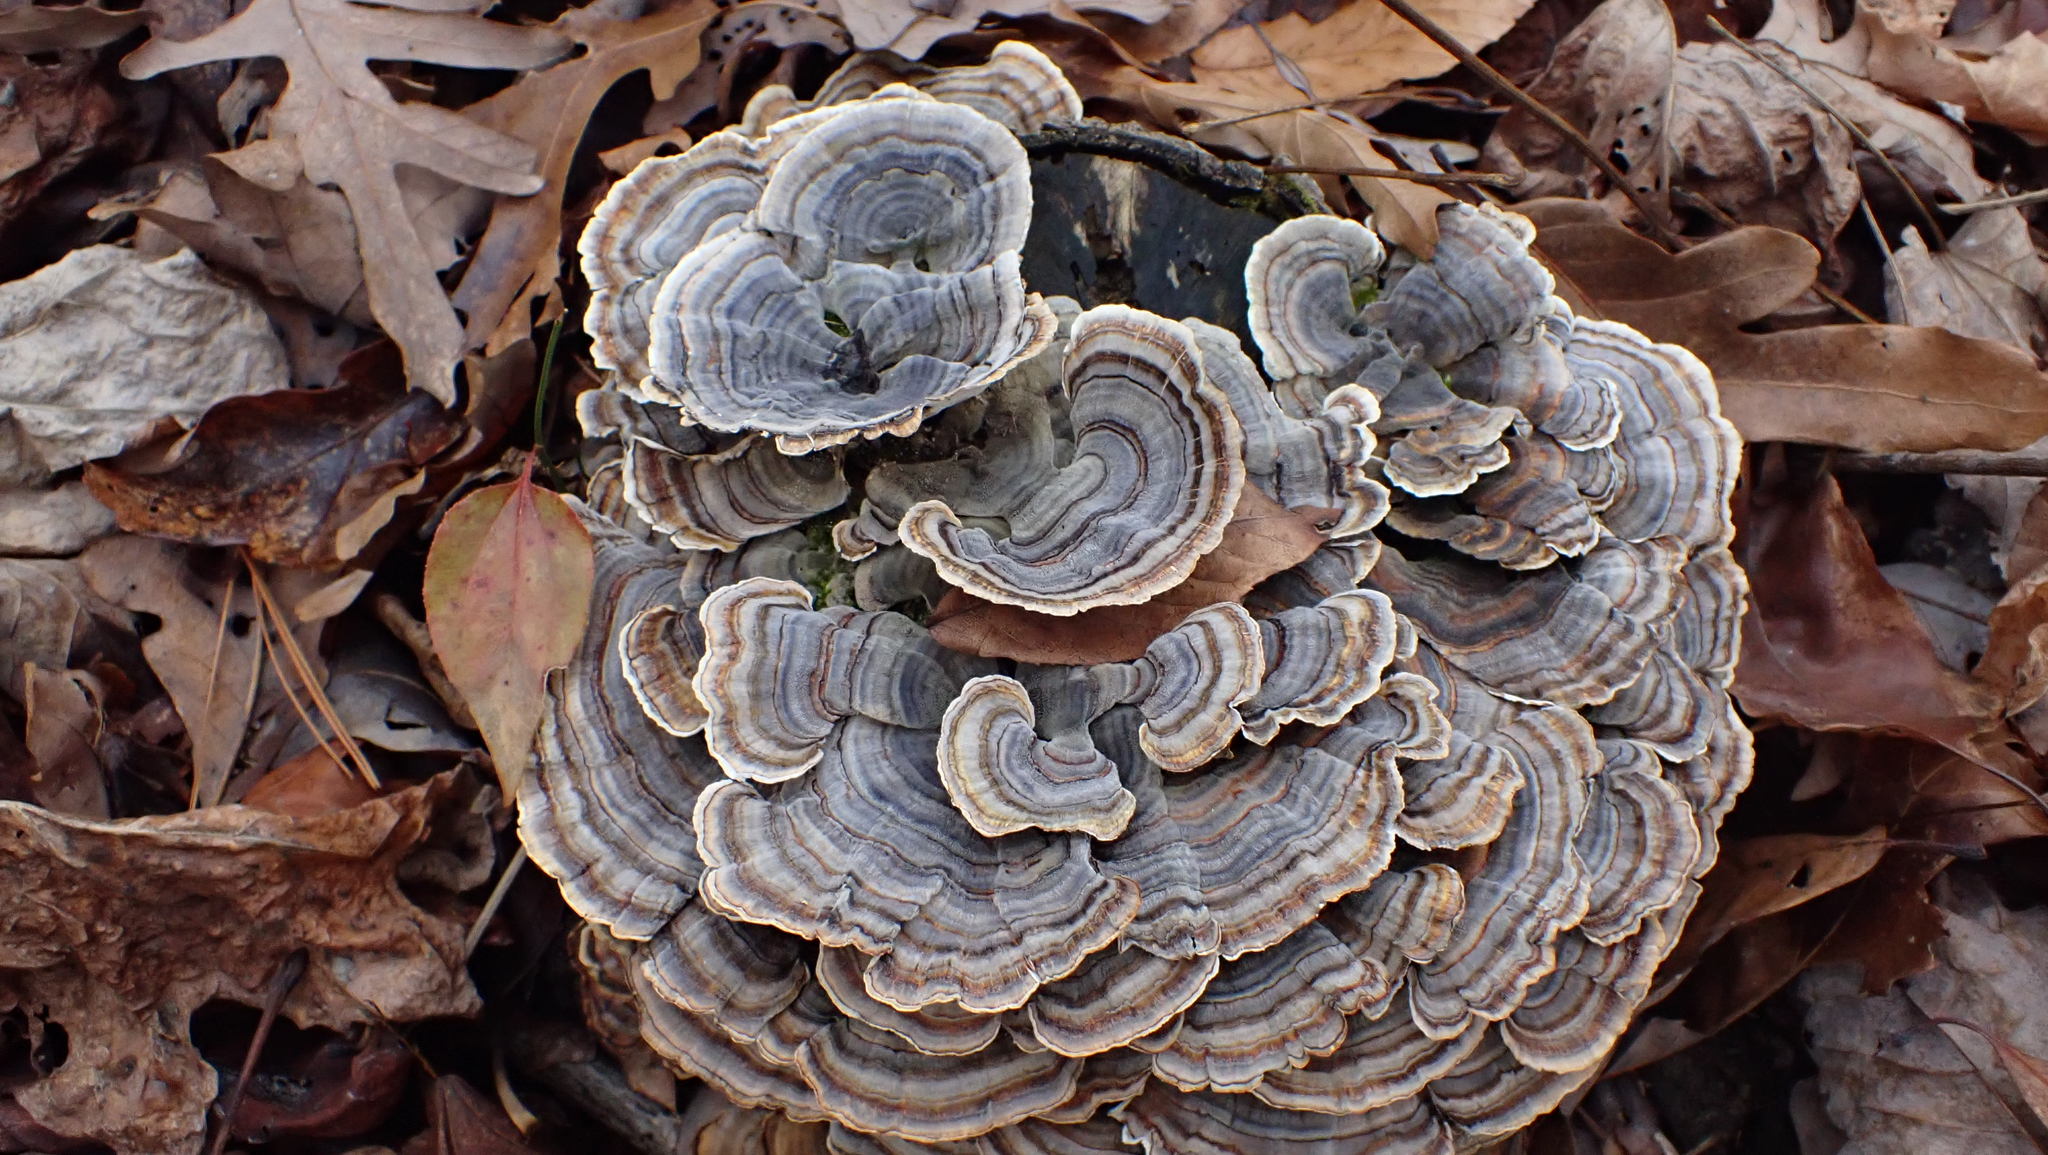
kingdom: Fungi
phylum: Basidiomycota
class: Agaricomycetes
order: Polyporales
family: Polyporaceae
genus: Trametes
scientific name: Trametes versicolor
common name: Turkeytail
